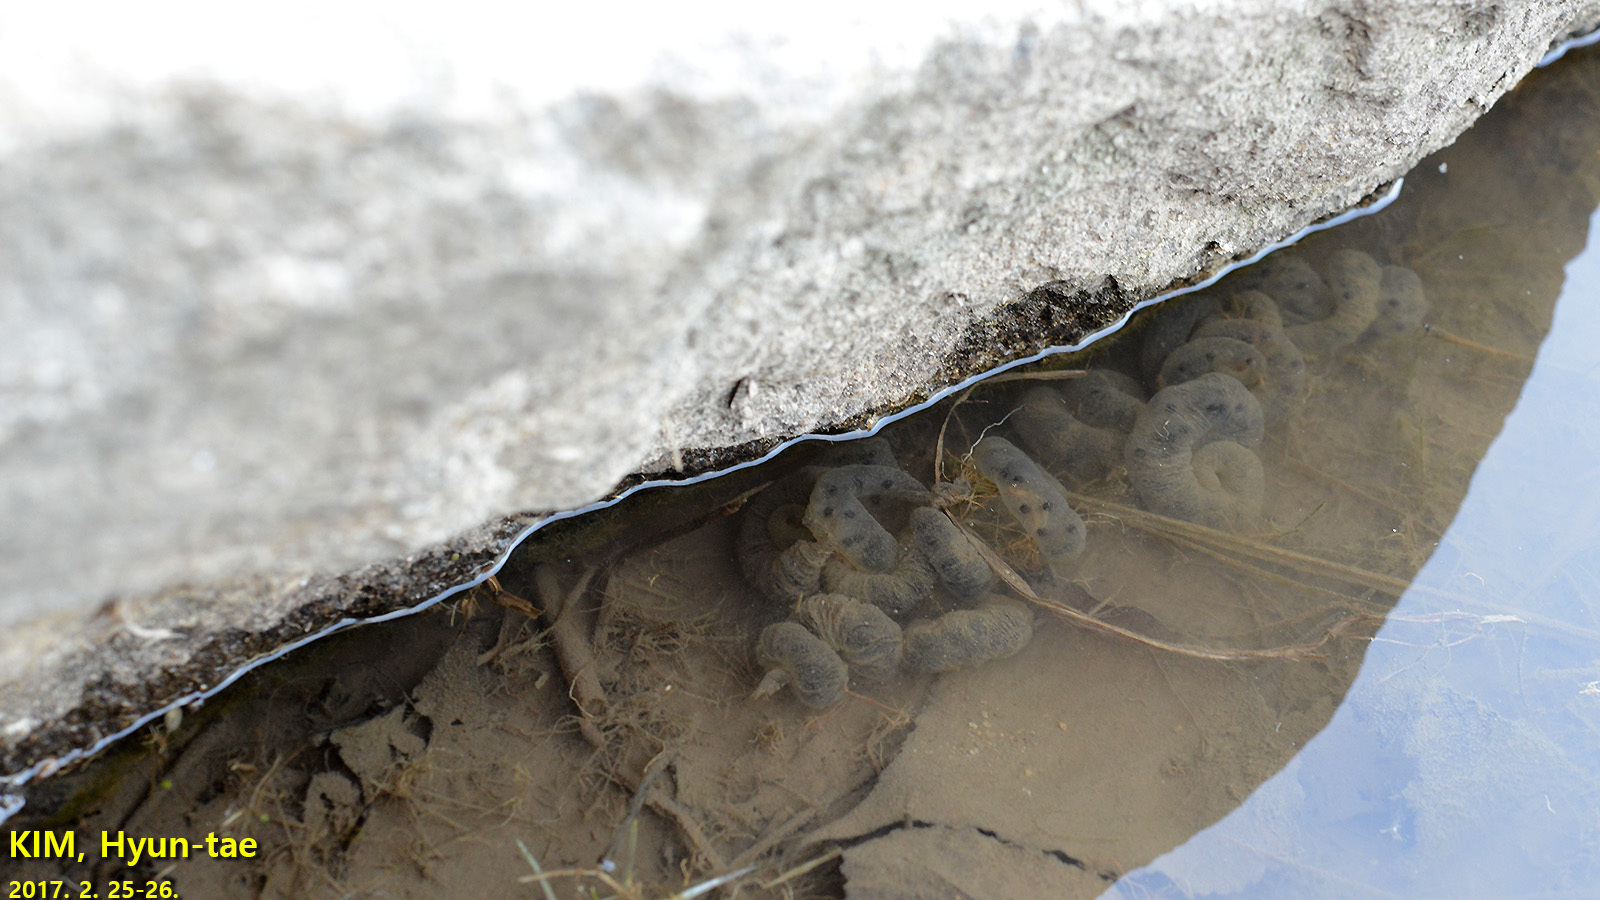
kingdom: Animalia
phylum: Chordata
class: Amphibia
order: Caudata
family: Hynobiidae
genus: Hynobius
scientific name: Hynobius leechii
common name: Gensan salamander
